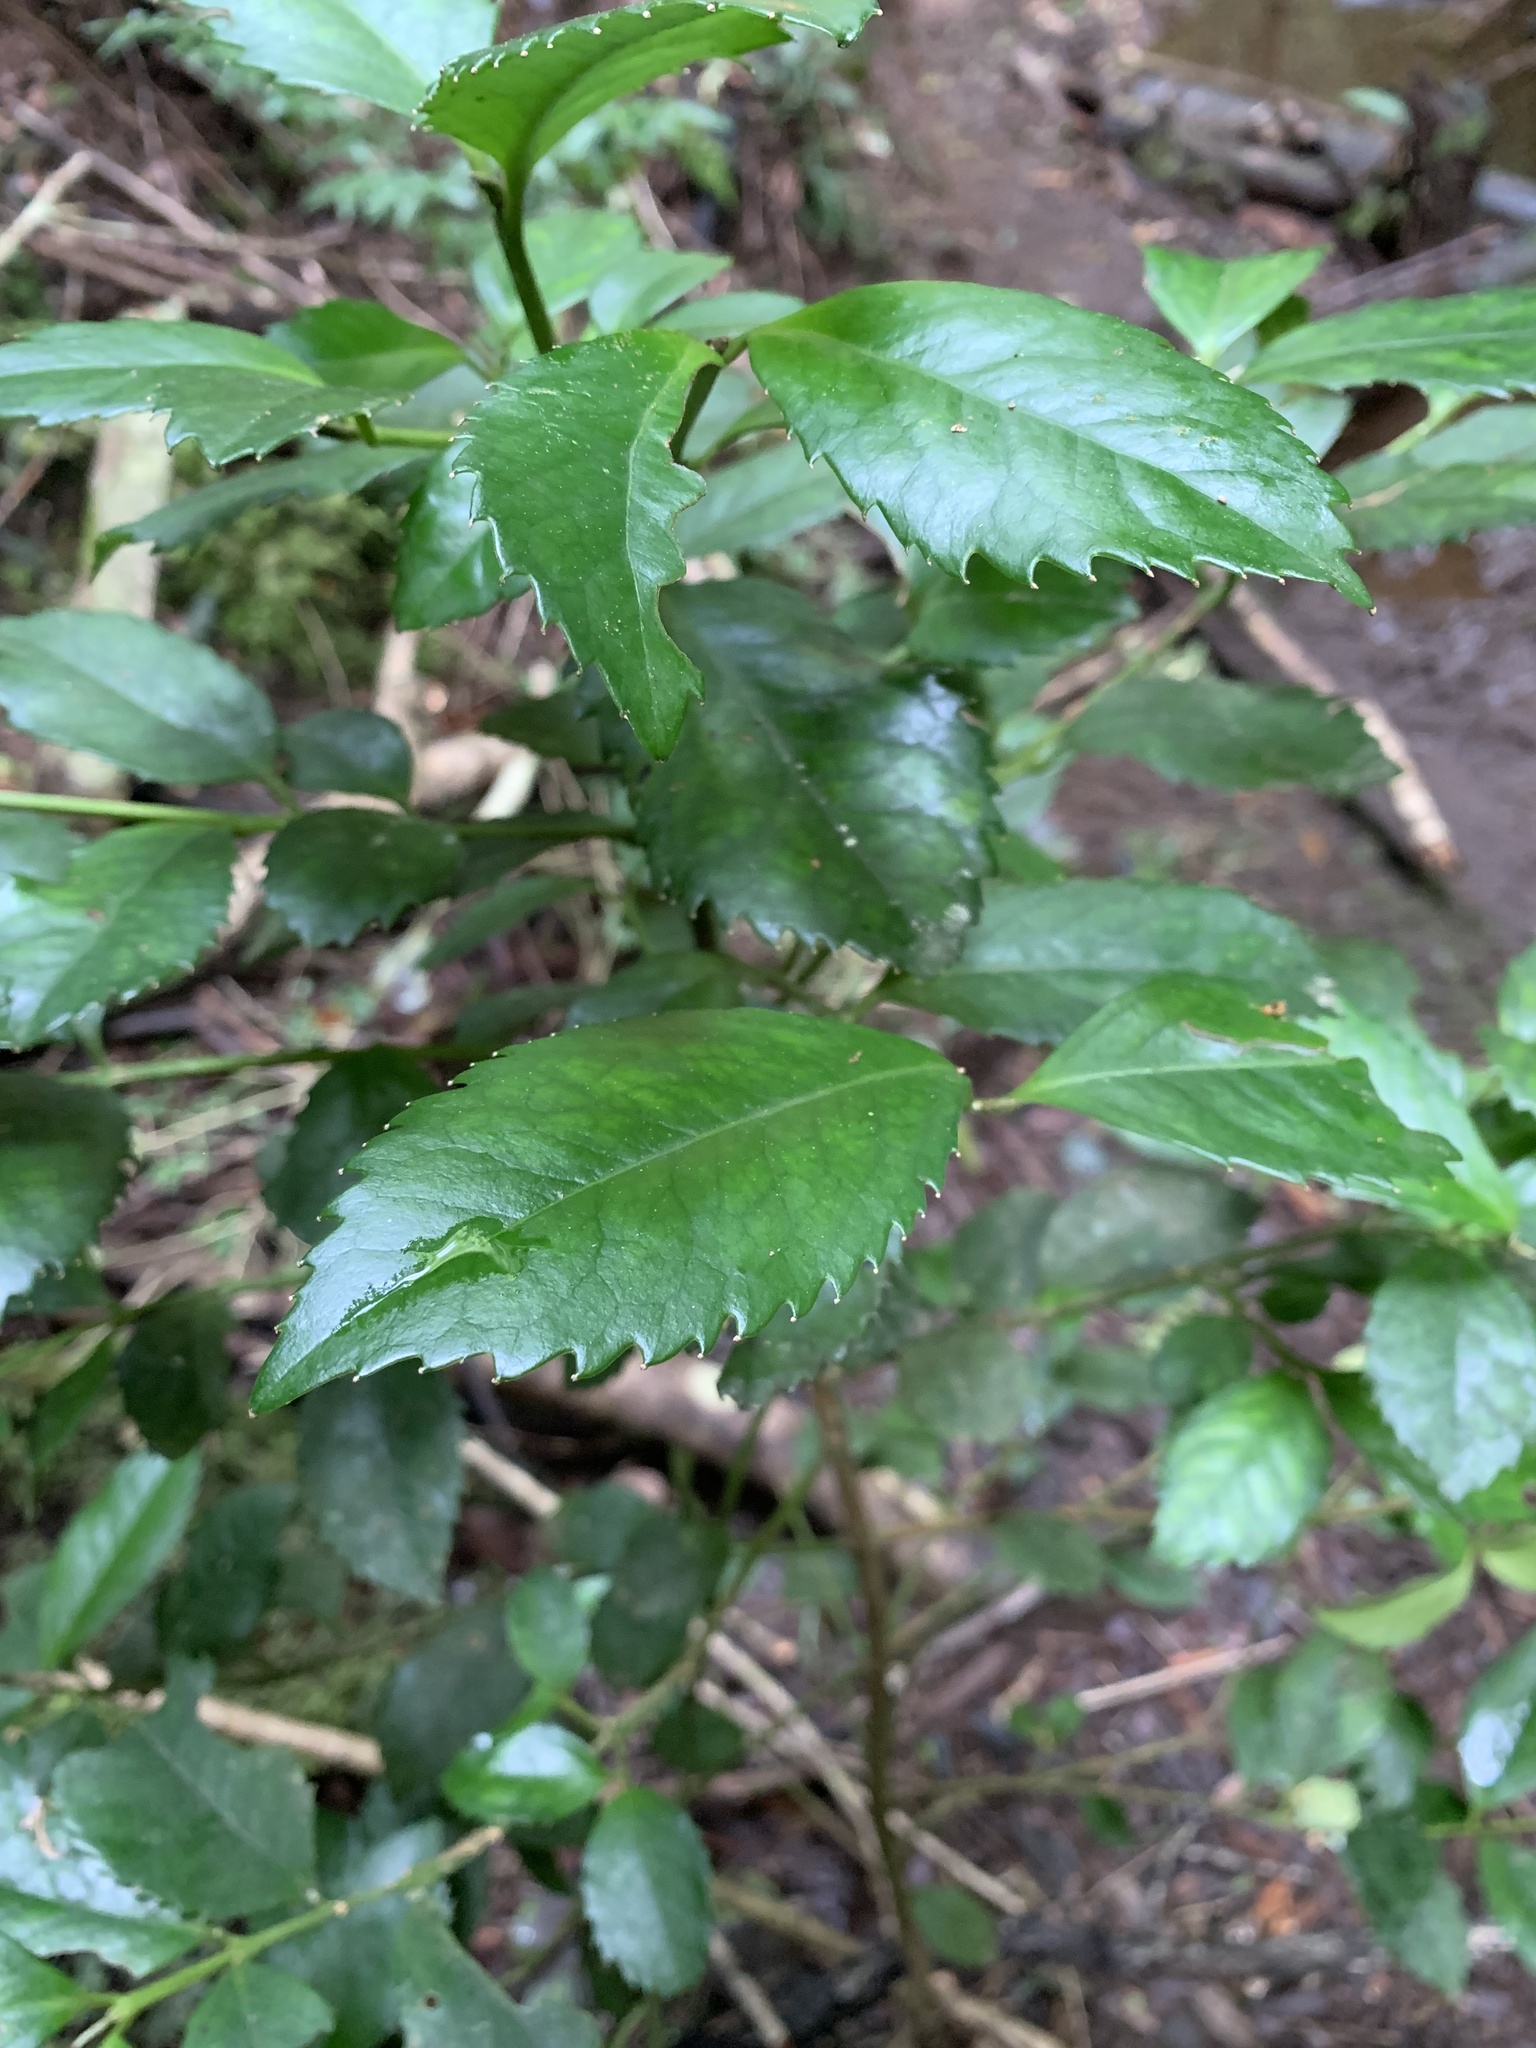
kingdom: Plantae
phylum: Tracheophyta
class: Magnoliopsida
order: Laurales
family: Atherospermataceae
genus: Laureliopsis
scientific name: Laureliopsis philippiana
